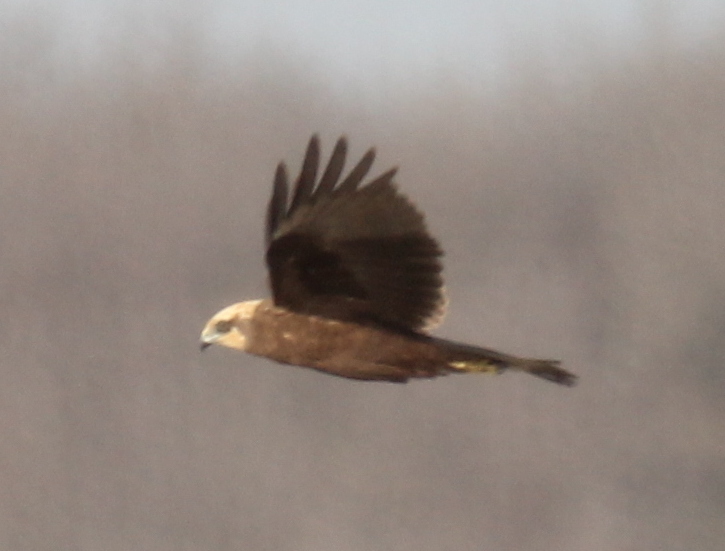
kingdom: Animalia
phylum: Chordata
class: Aves
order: Accipitriformes
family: Accipitridae
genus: Circus
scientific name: Circus aeruginosus
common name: Western marsh harrier
